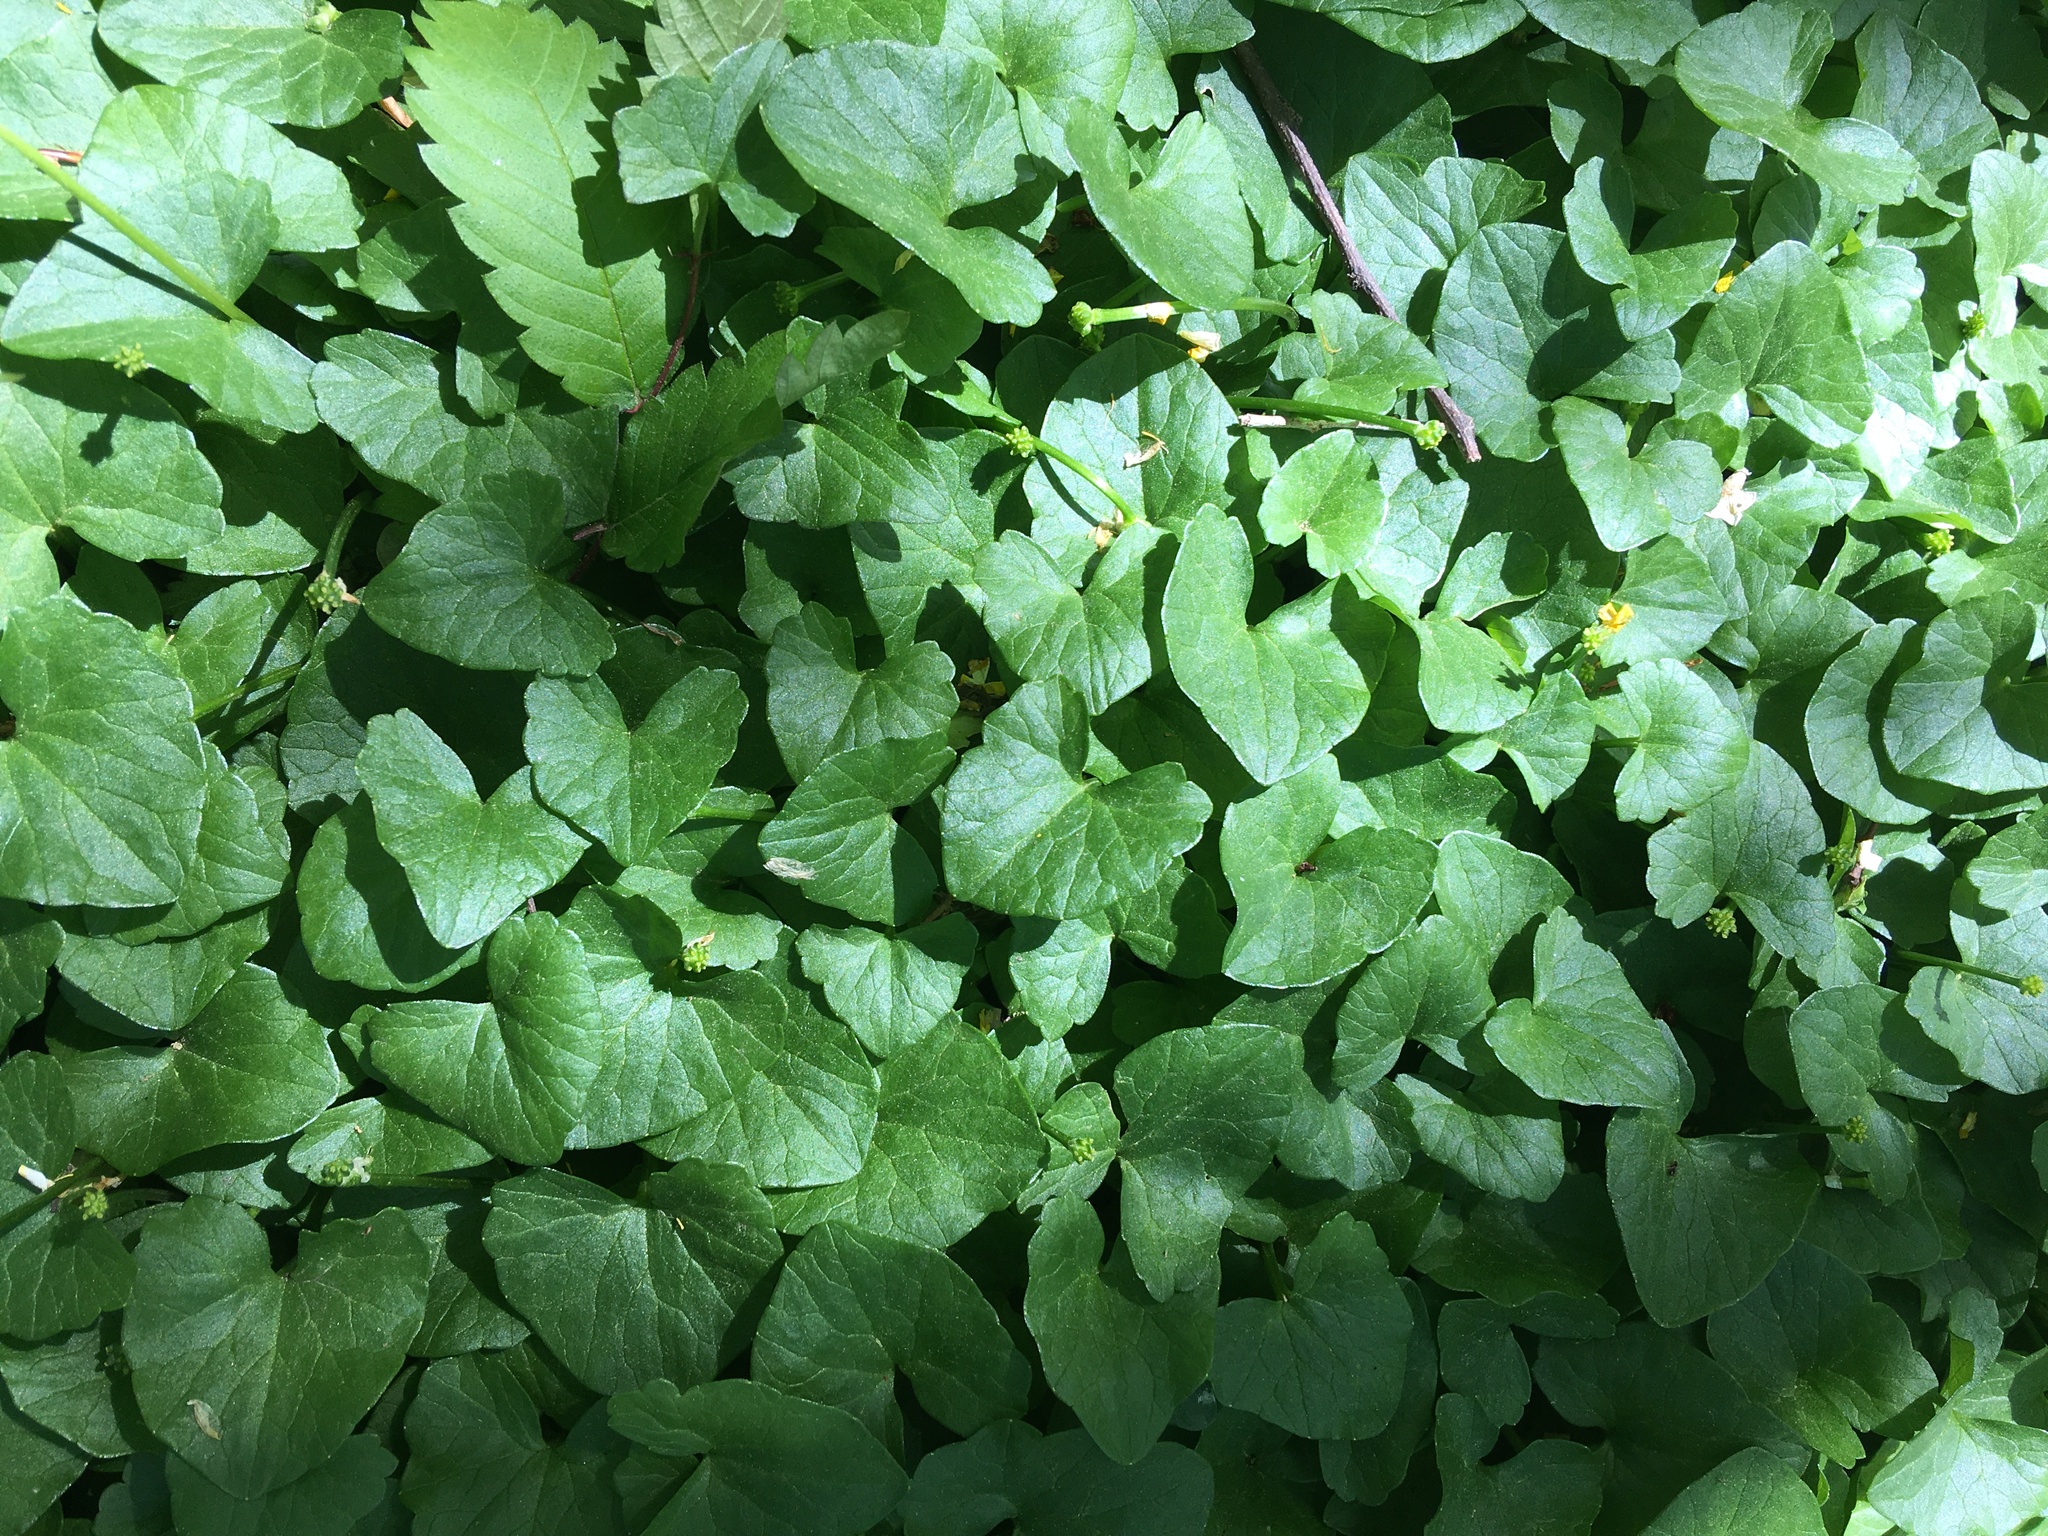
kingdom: Plantae
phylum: Tracheophyta
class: Magnoliopsida
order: Ranunculales
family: Ranunculaceae
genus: Ficaria
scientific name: Ficaria verna
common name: Lesser celandine
